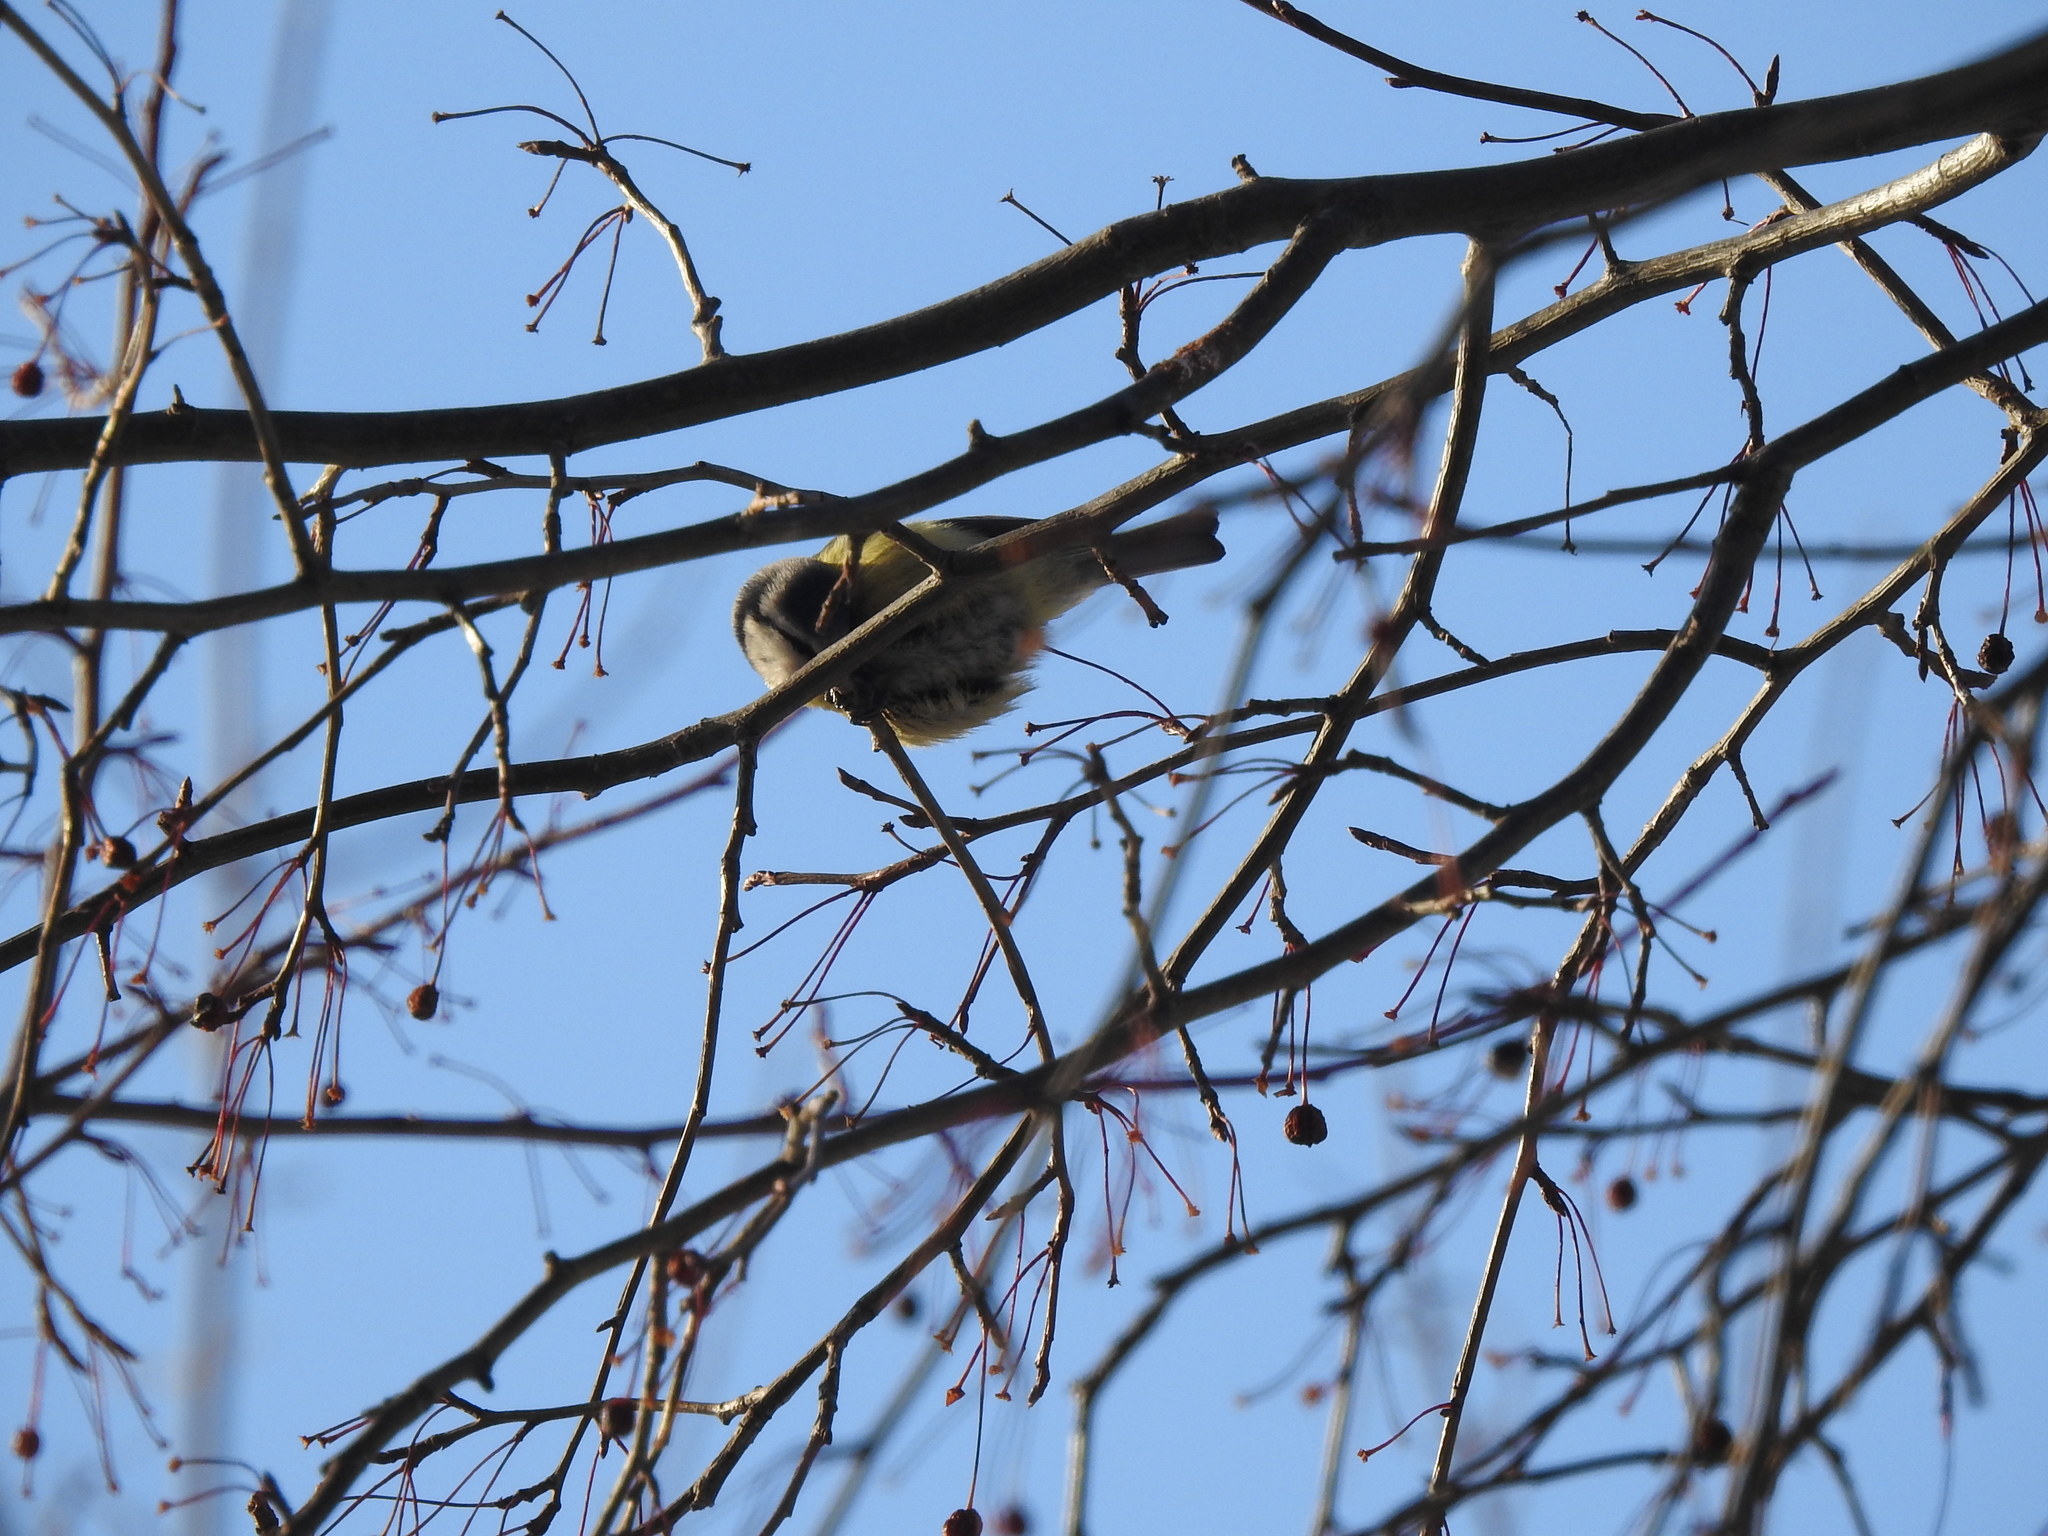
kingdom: Animalia
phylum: Chordata
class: Aves
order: Passeriformes
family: Paridae
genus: Cyanistes
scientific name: Cyanistes caeruleus
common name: Eurasian blue tit
